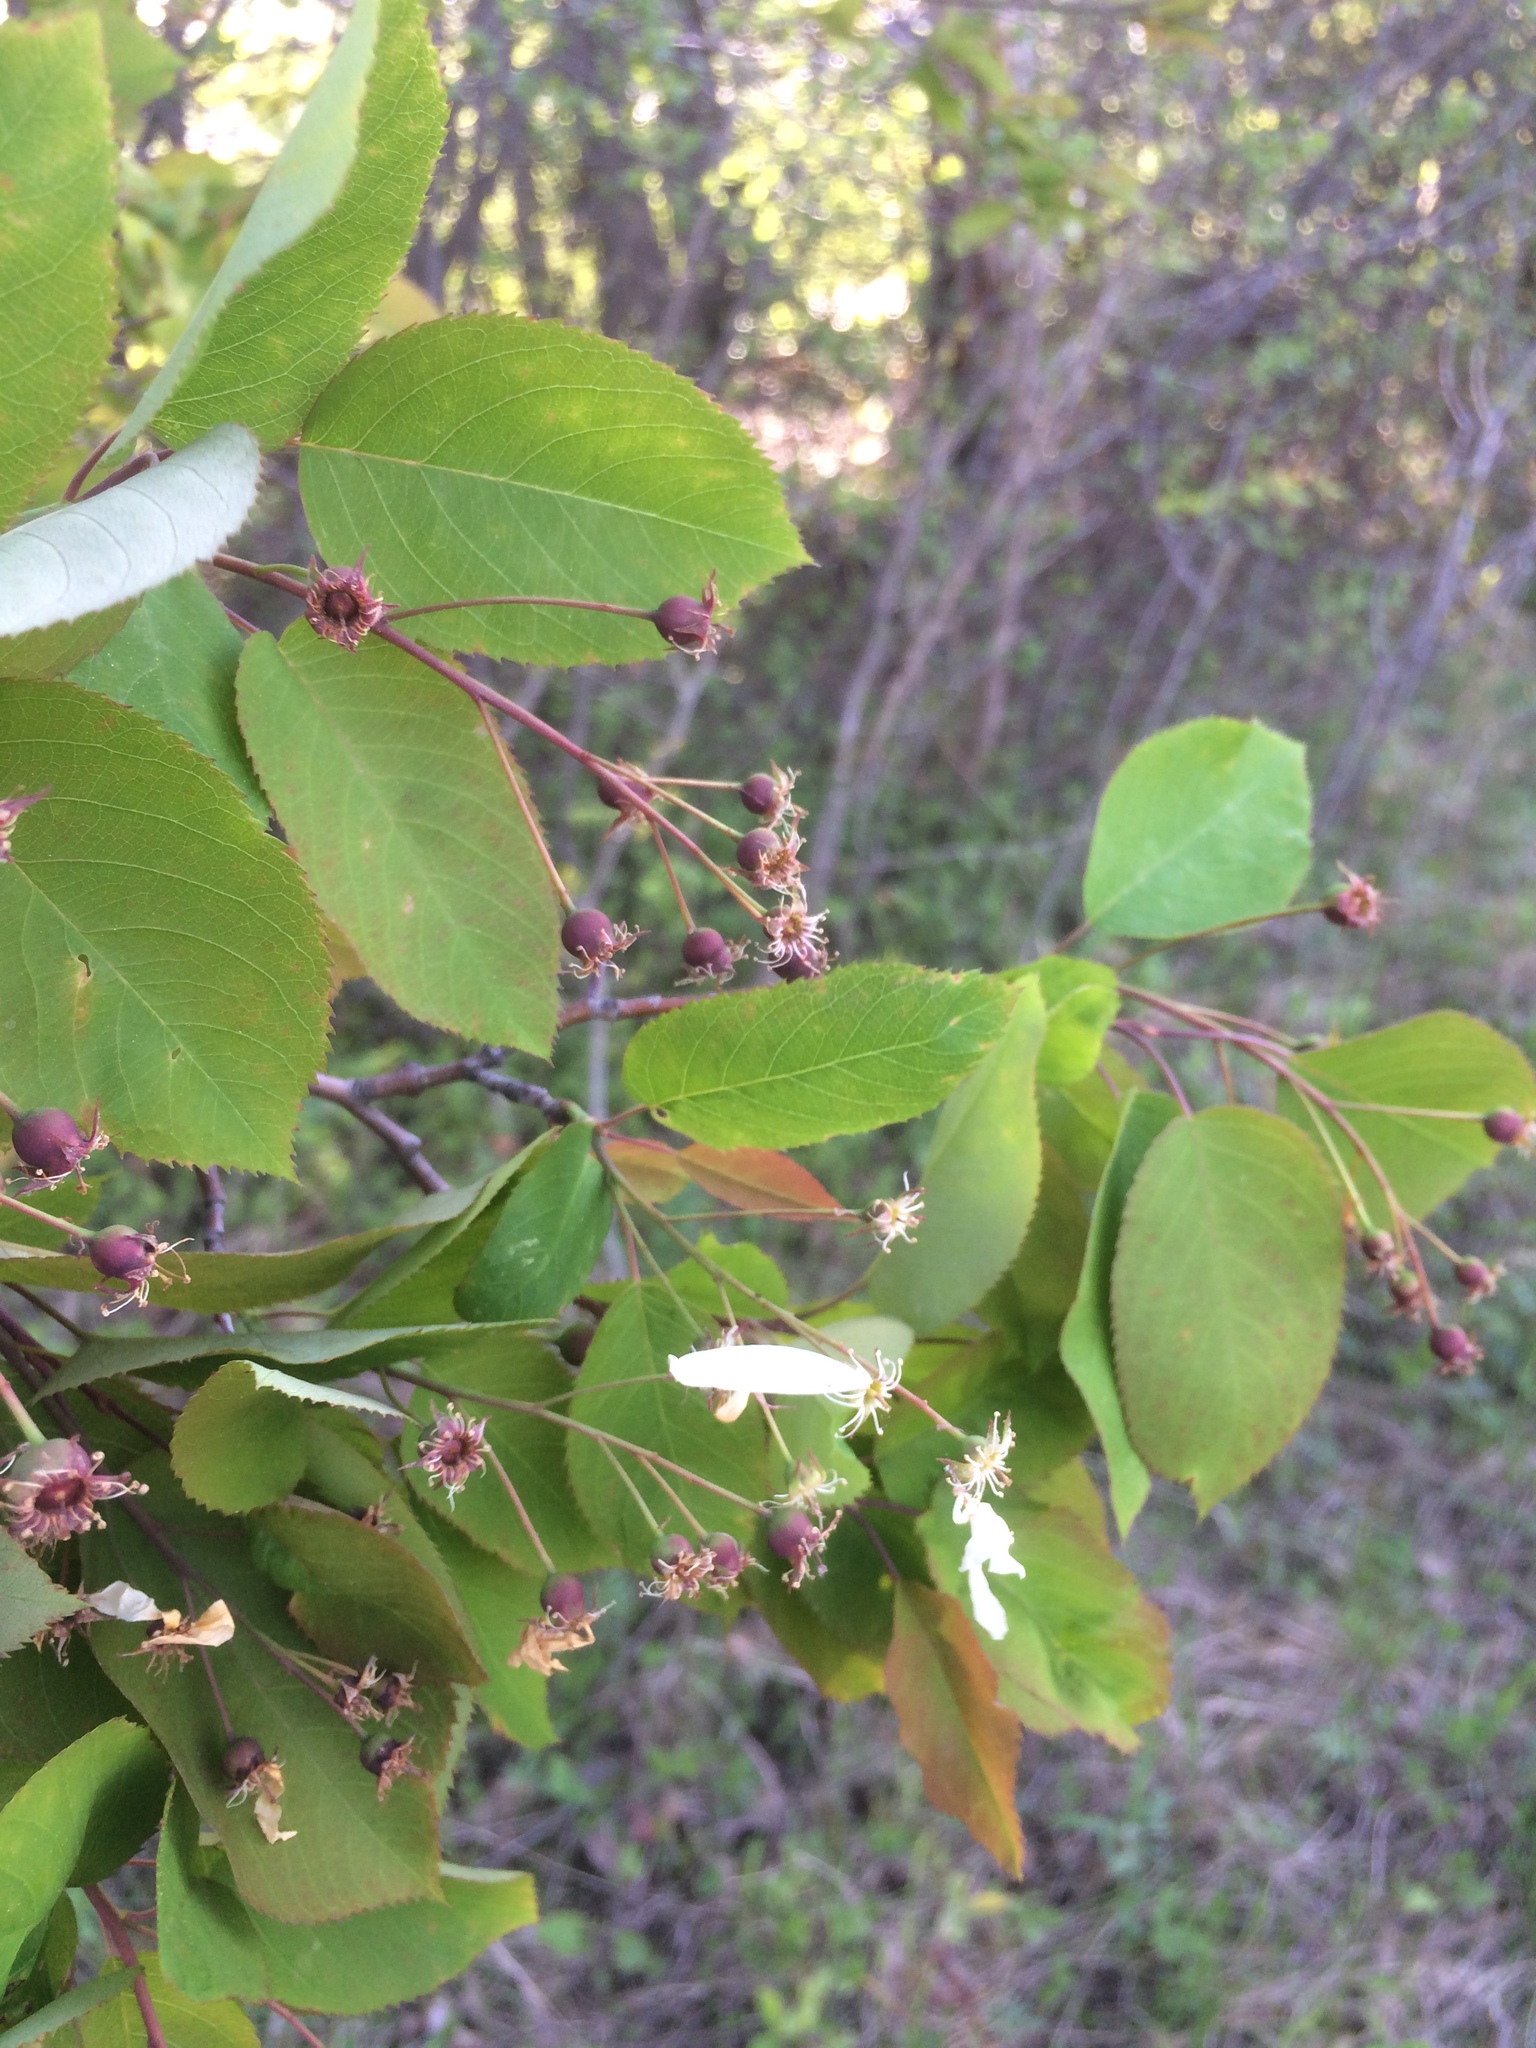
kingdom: Plantae
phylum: Tracheophyta
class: Magnoliopsida
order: Rosales
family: Rosaceae
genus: Amelanchier
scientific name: Amelanchier laevis
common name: Allegheny serviceberry
